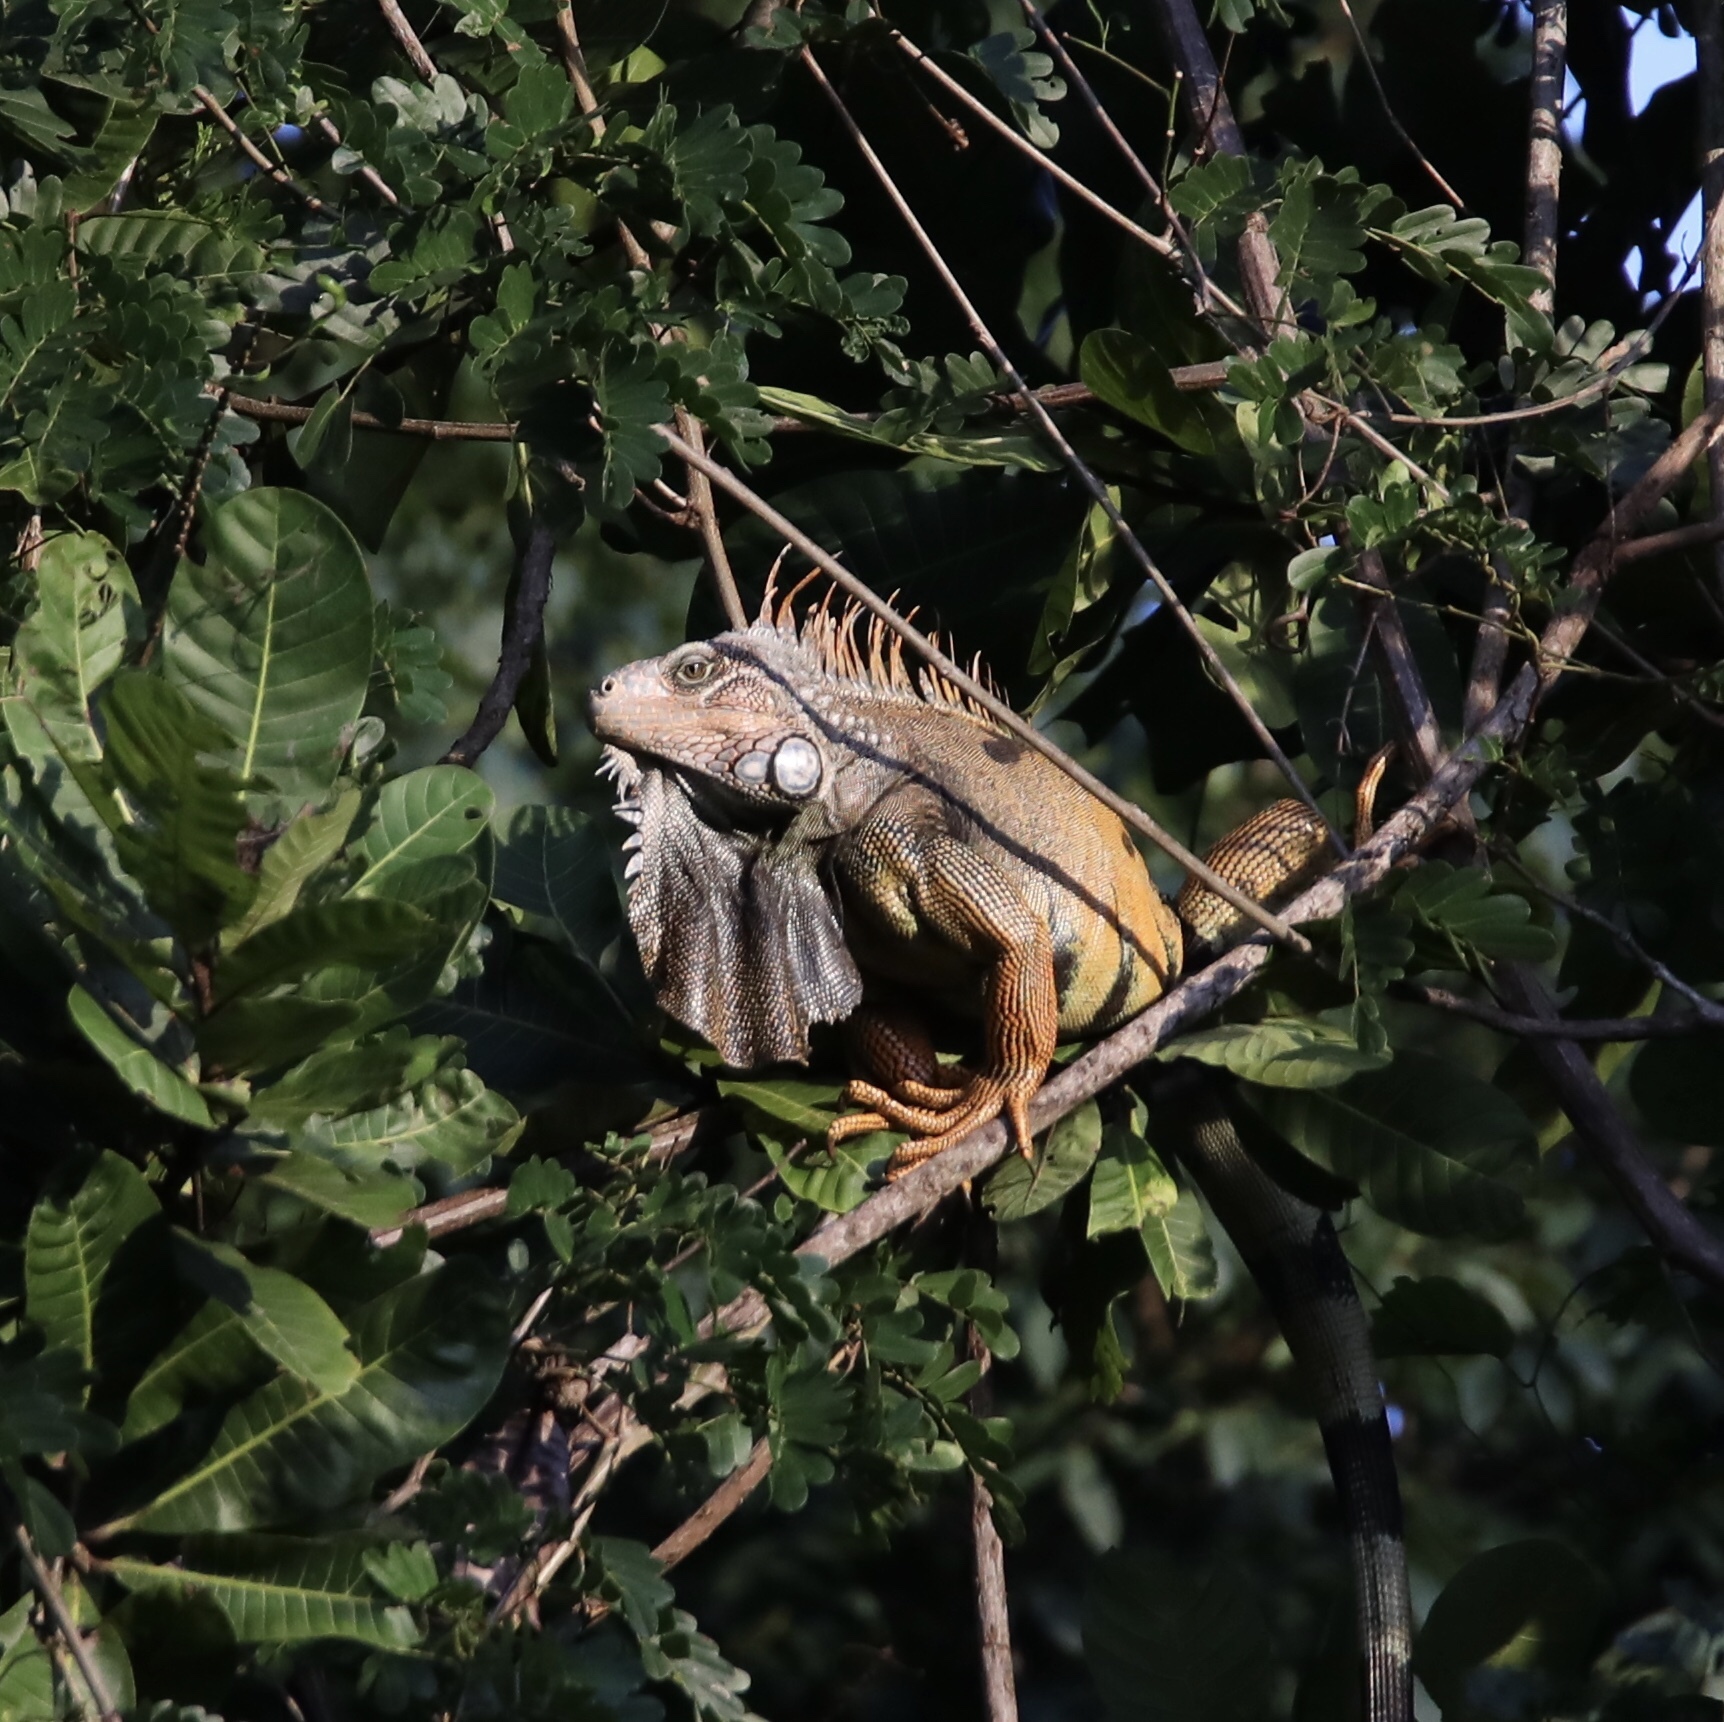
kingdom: Animalia
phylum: Chordata
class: Squamata
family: Iguanidae
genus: Iguana
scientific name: Iguana iguana
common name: Green iguana
